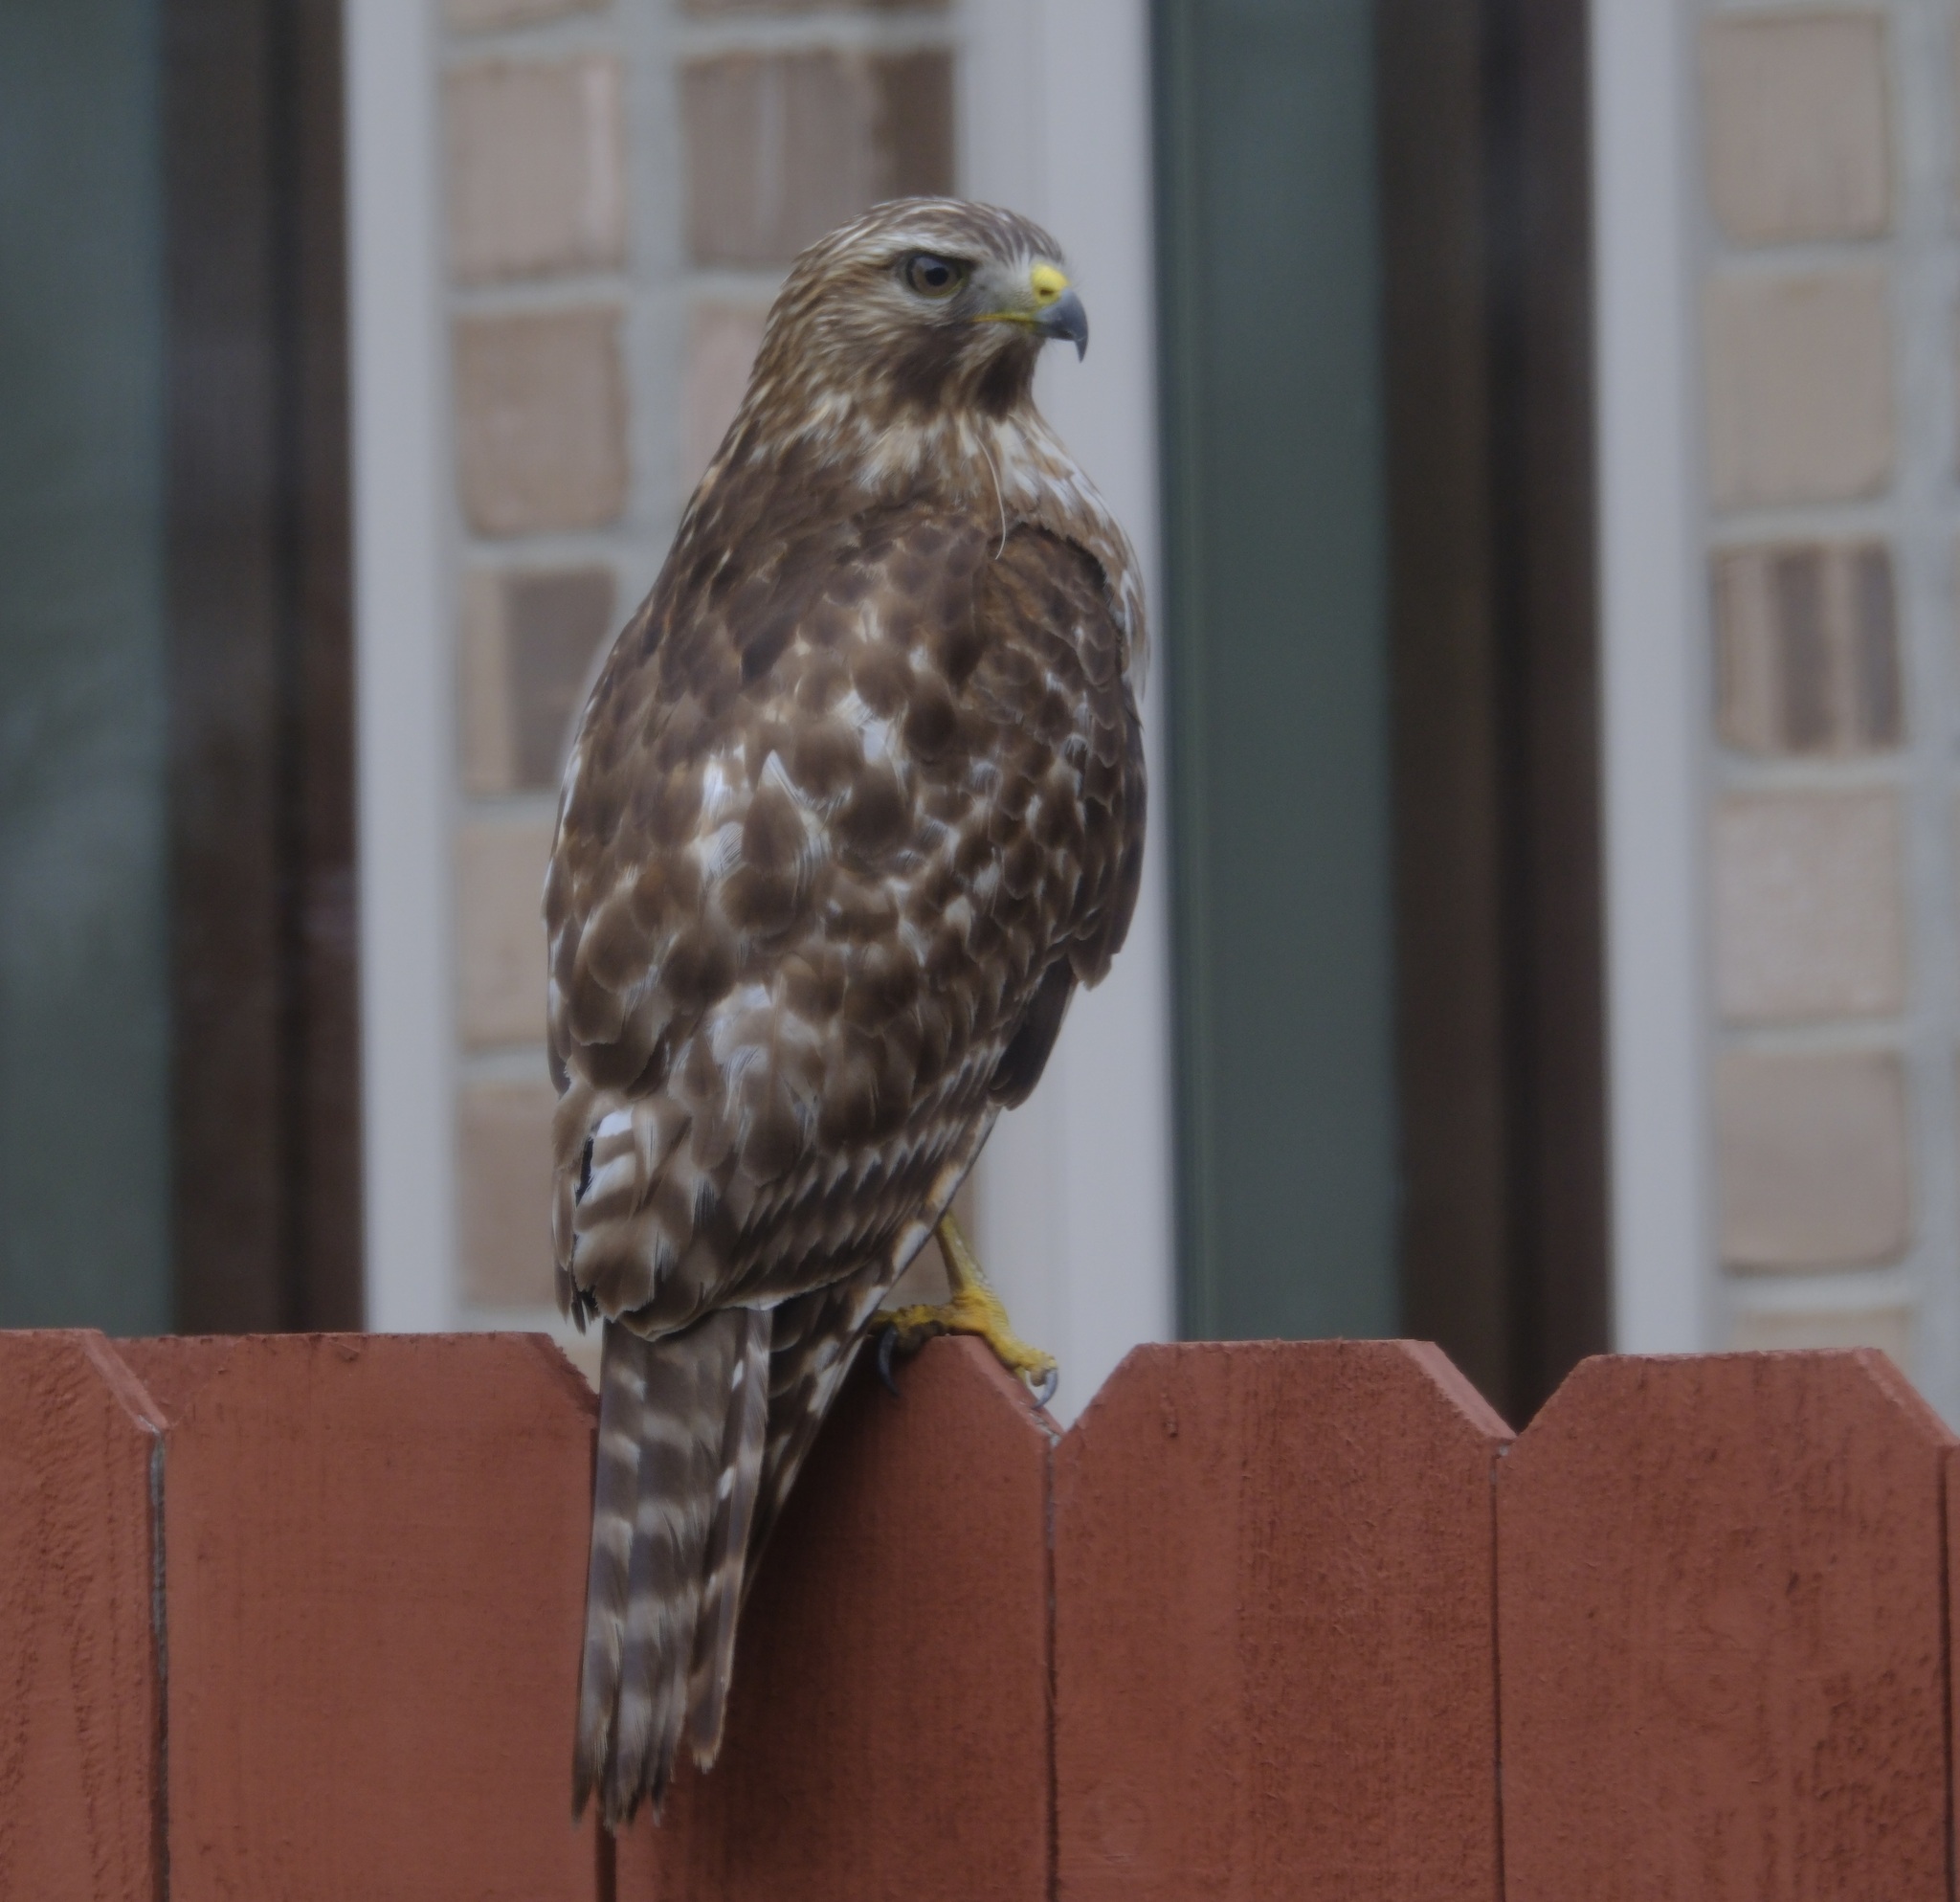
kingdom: Animalia
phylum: Chordata
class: Aves
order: Accipitriformes
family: Accipitridae
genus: Buteo
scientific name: Buteo lineatus
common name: Red-shouldered hawk
